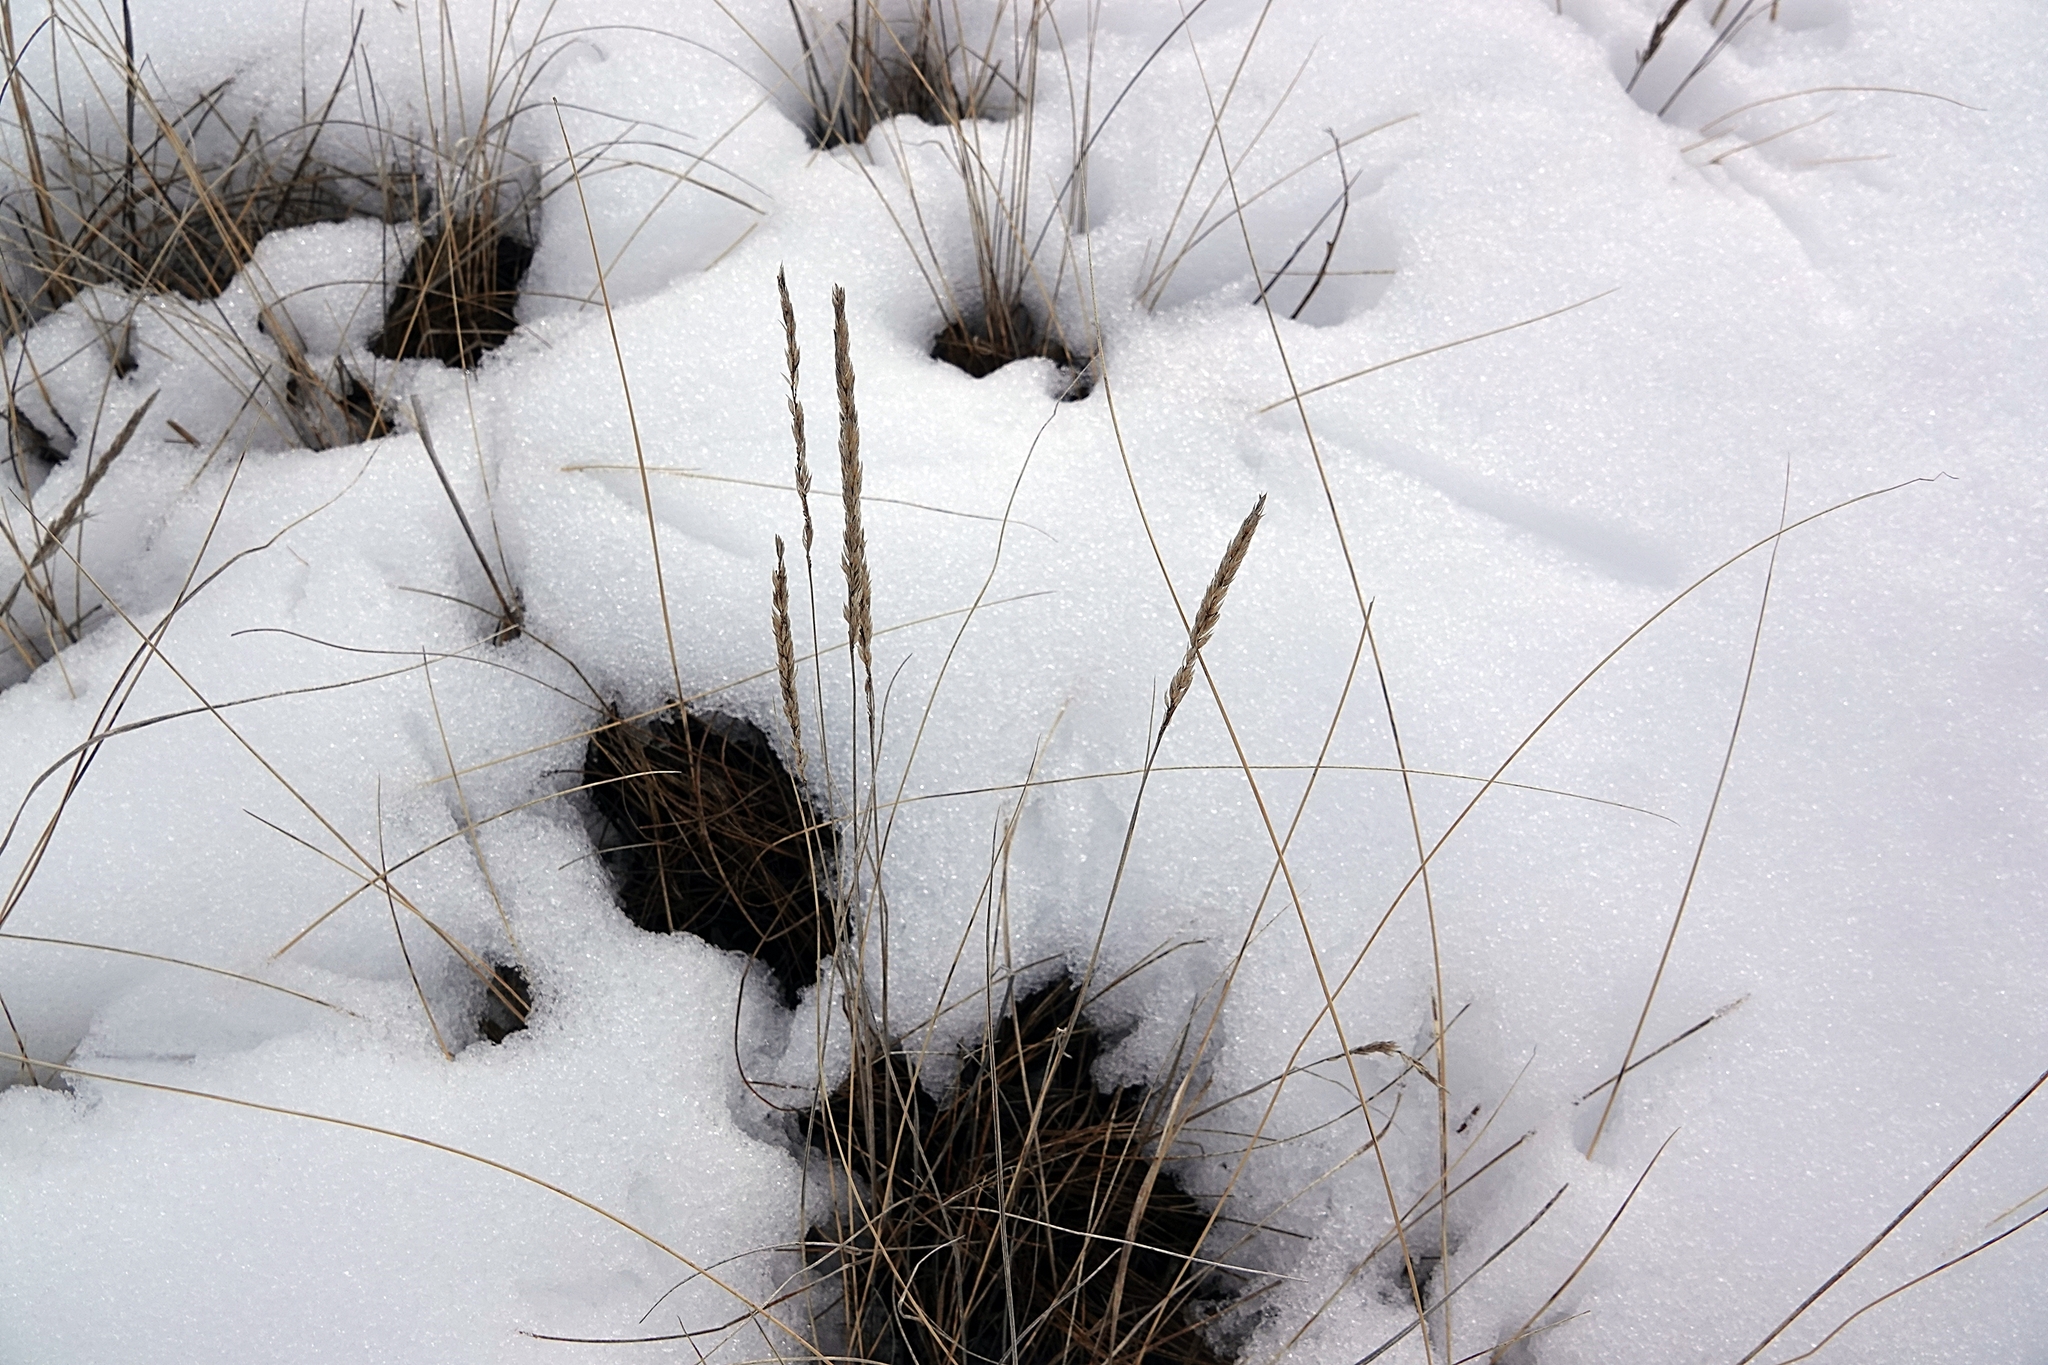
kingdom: Plantae
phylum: Tracheophyta
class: Liliopsida
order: Poales
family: Poaceae
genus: Koeleria
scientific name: Koeleria macrantha
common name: Crested hair-grass
